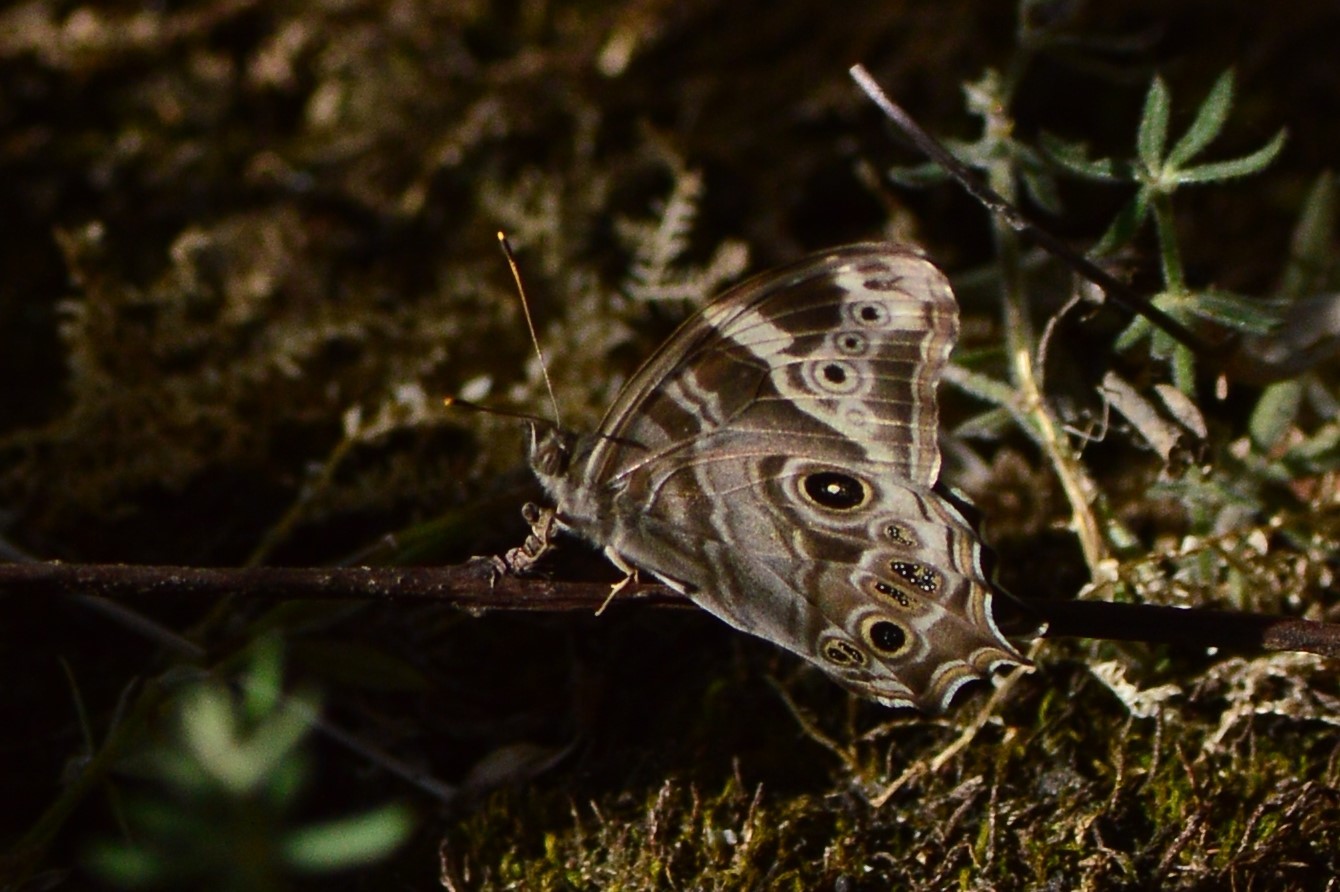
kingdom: Animalia
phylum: Arthropoda
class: Insecta
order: Lepidoptera
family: Nymphalidae
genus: Lethe
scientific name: Lethe rohria
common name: Common treebrown
